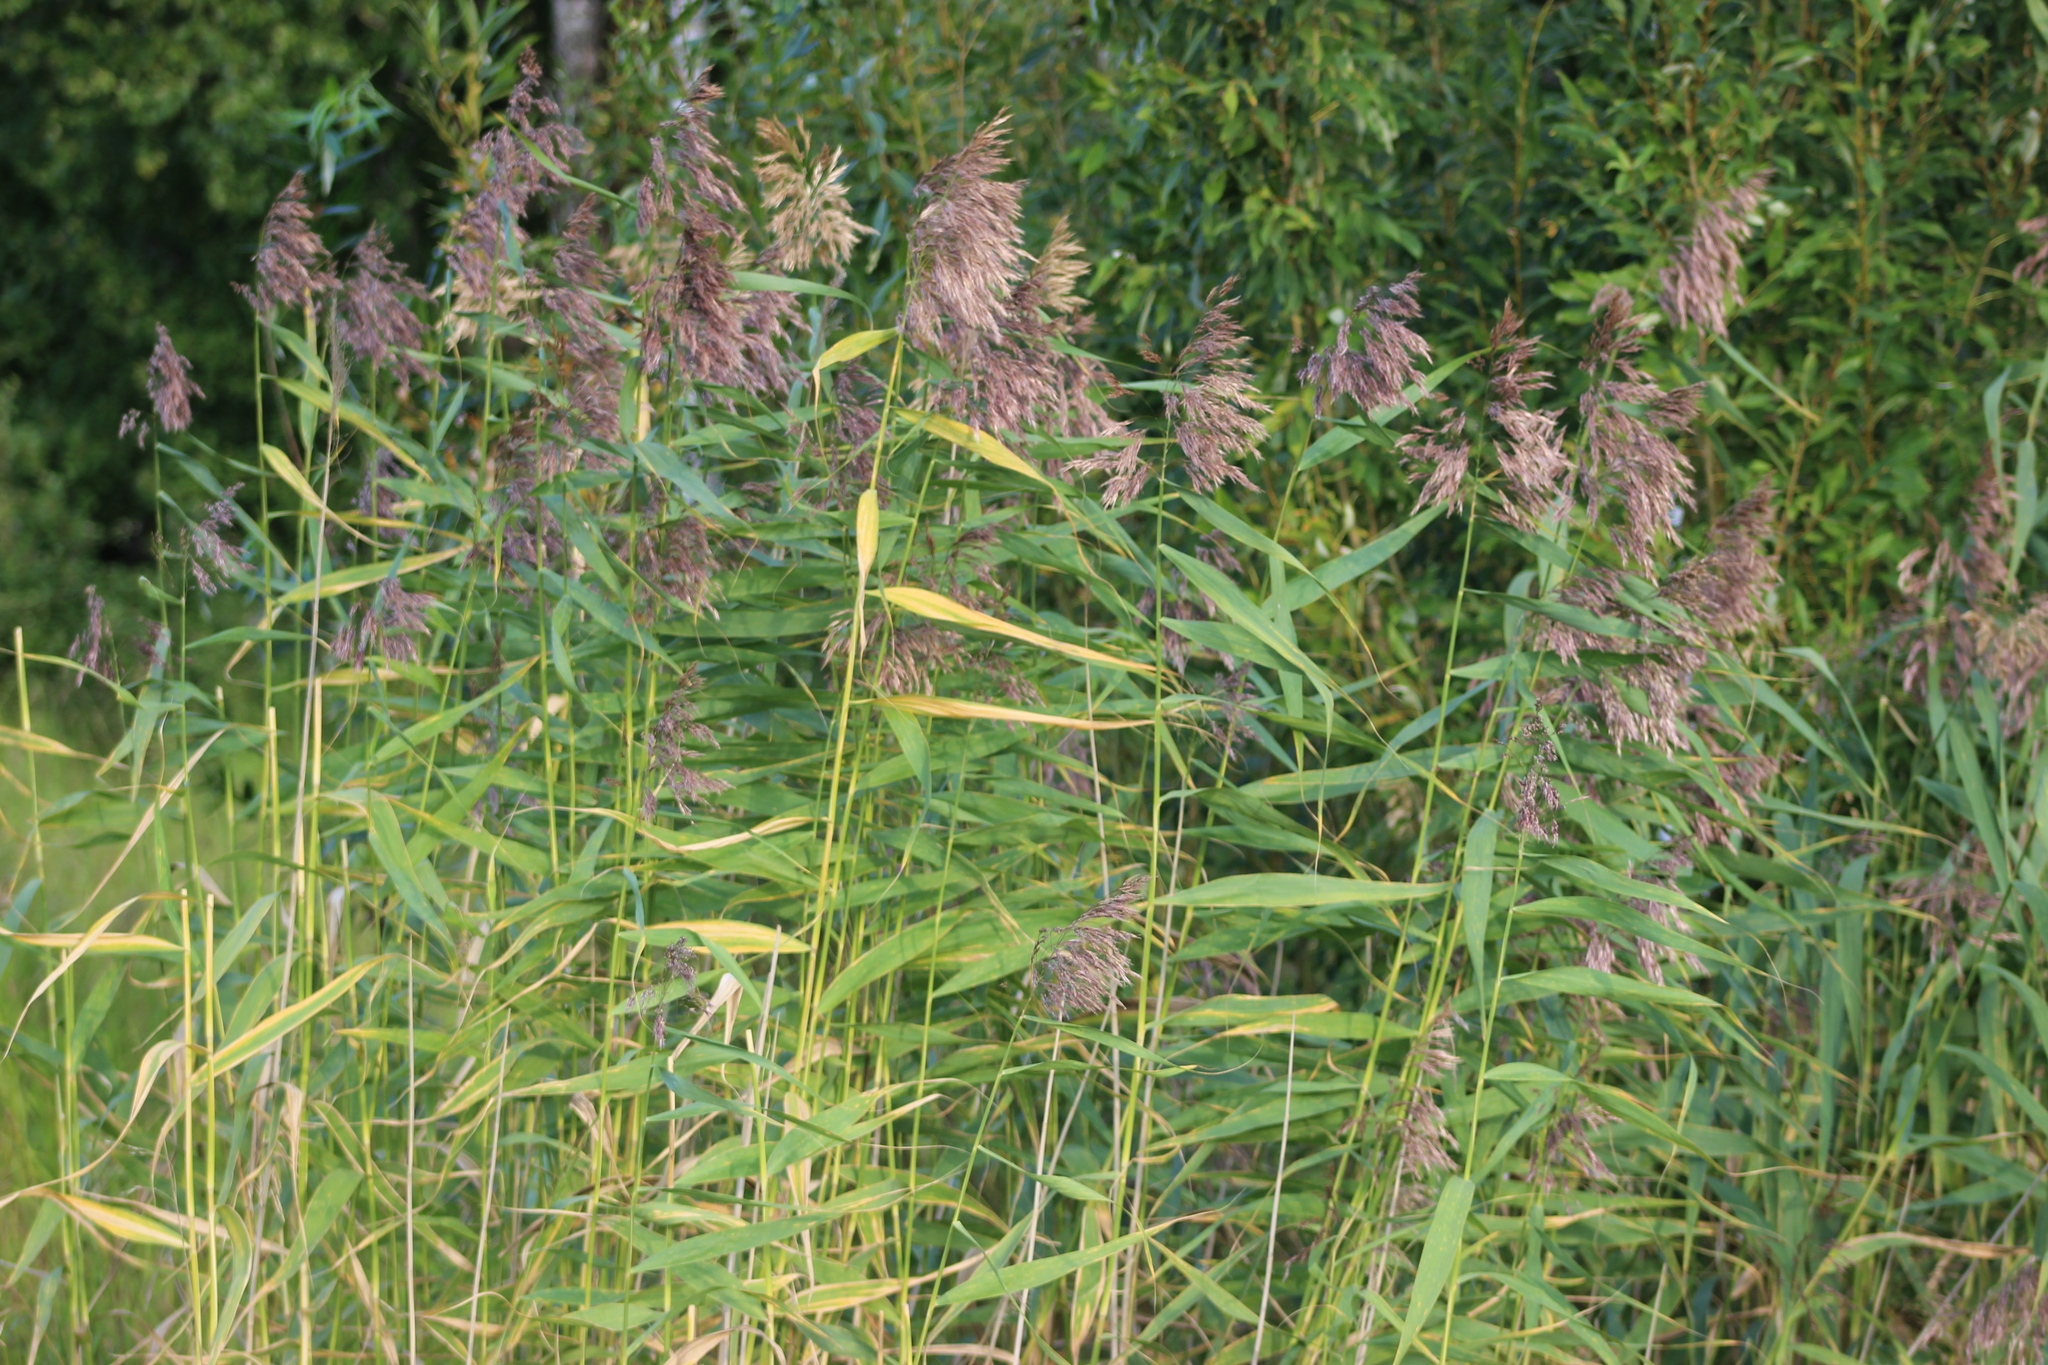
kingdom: Plantae
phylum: Tracheophyta
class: Liliopsida
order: Poales
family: Poaceae
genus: Phragmites
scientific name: Phragmites australis
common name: Common reed
